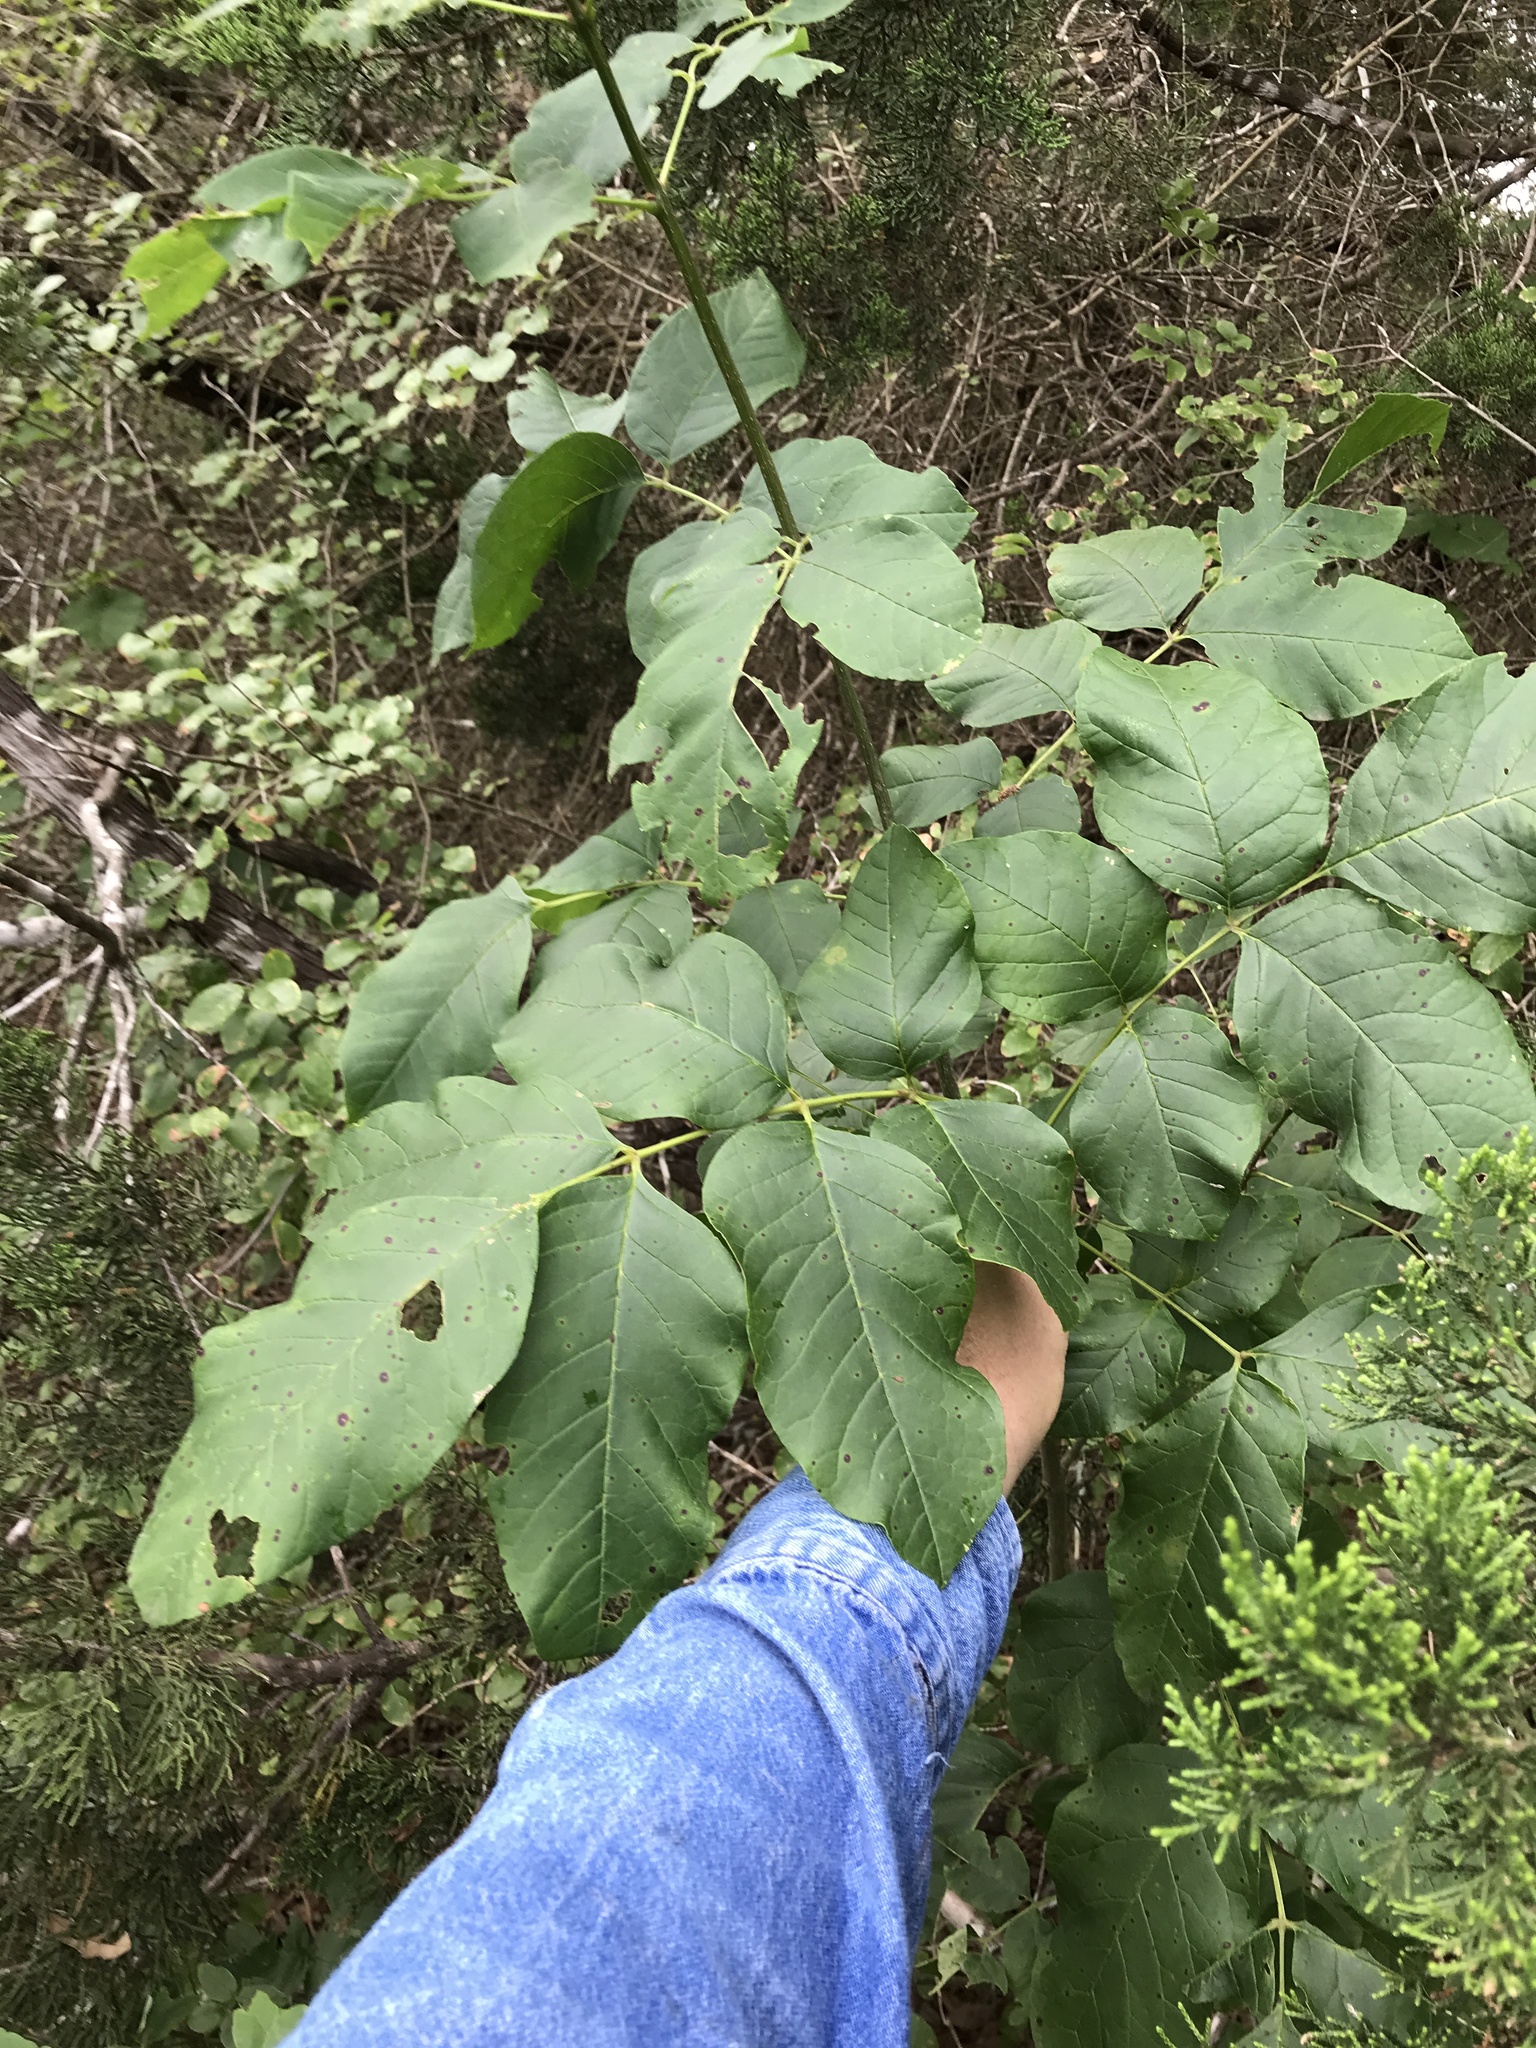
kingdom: Plantae
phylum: Tracheophyta
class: Magnoliopsida
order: Lamiales
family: Oleaceae
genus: Fraxinus
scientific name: Fraxinus albicans
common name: Texas ash
